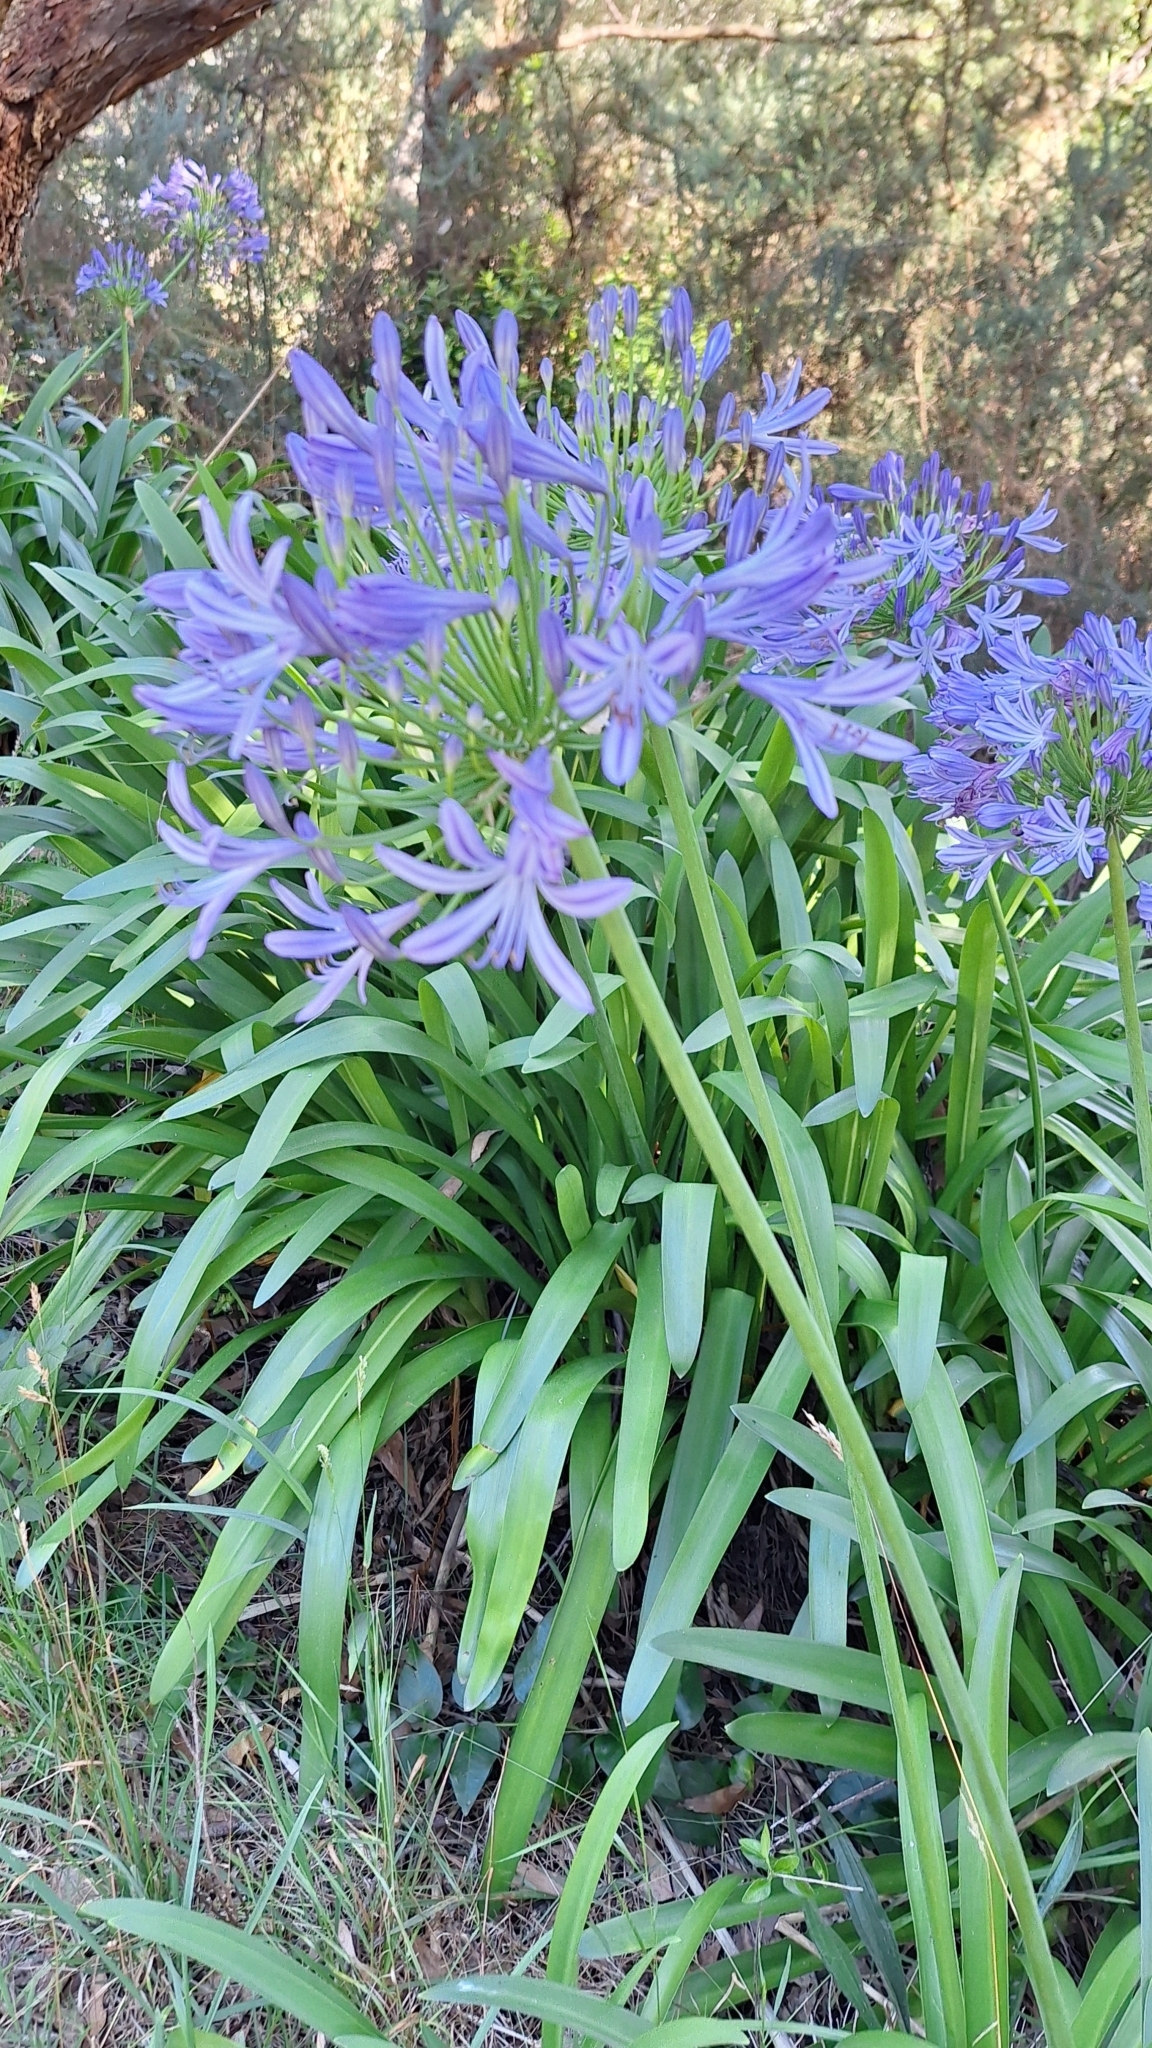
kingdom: Plantae
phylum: Tracheophyta
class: Liliopsida
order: Asparagales
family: Amaryllidaceae
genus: Agapanthus
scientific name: Agapanthus praecox
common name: African-lily
